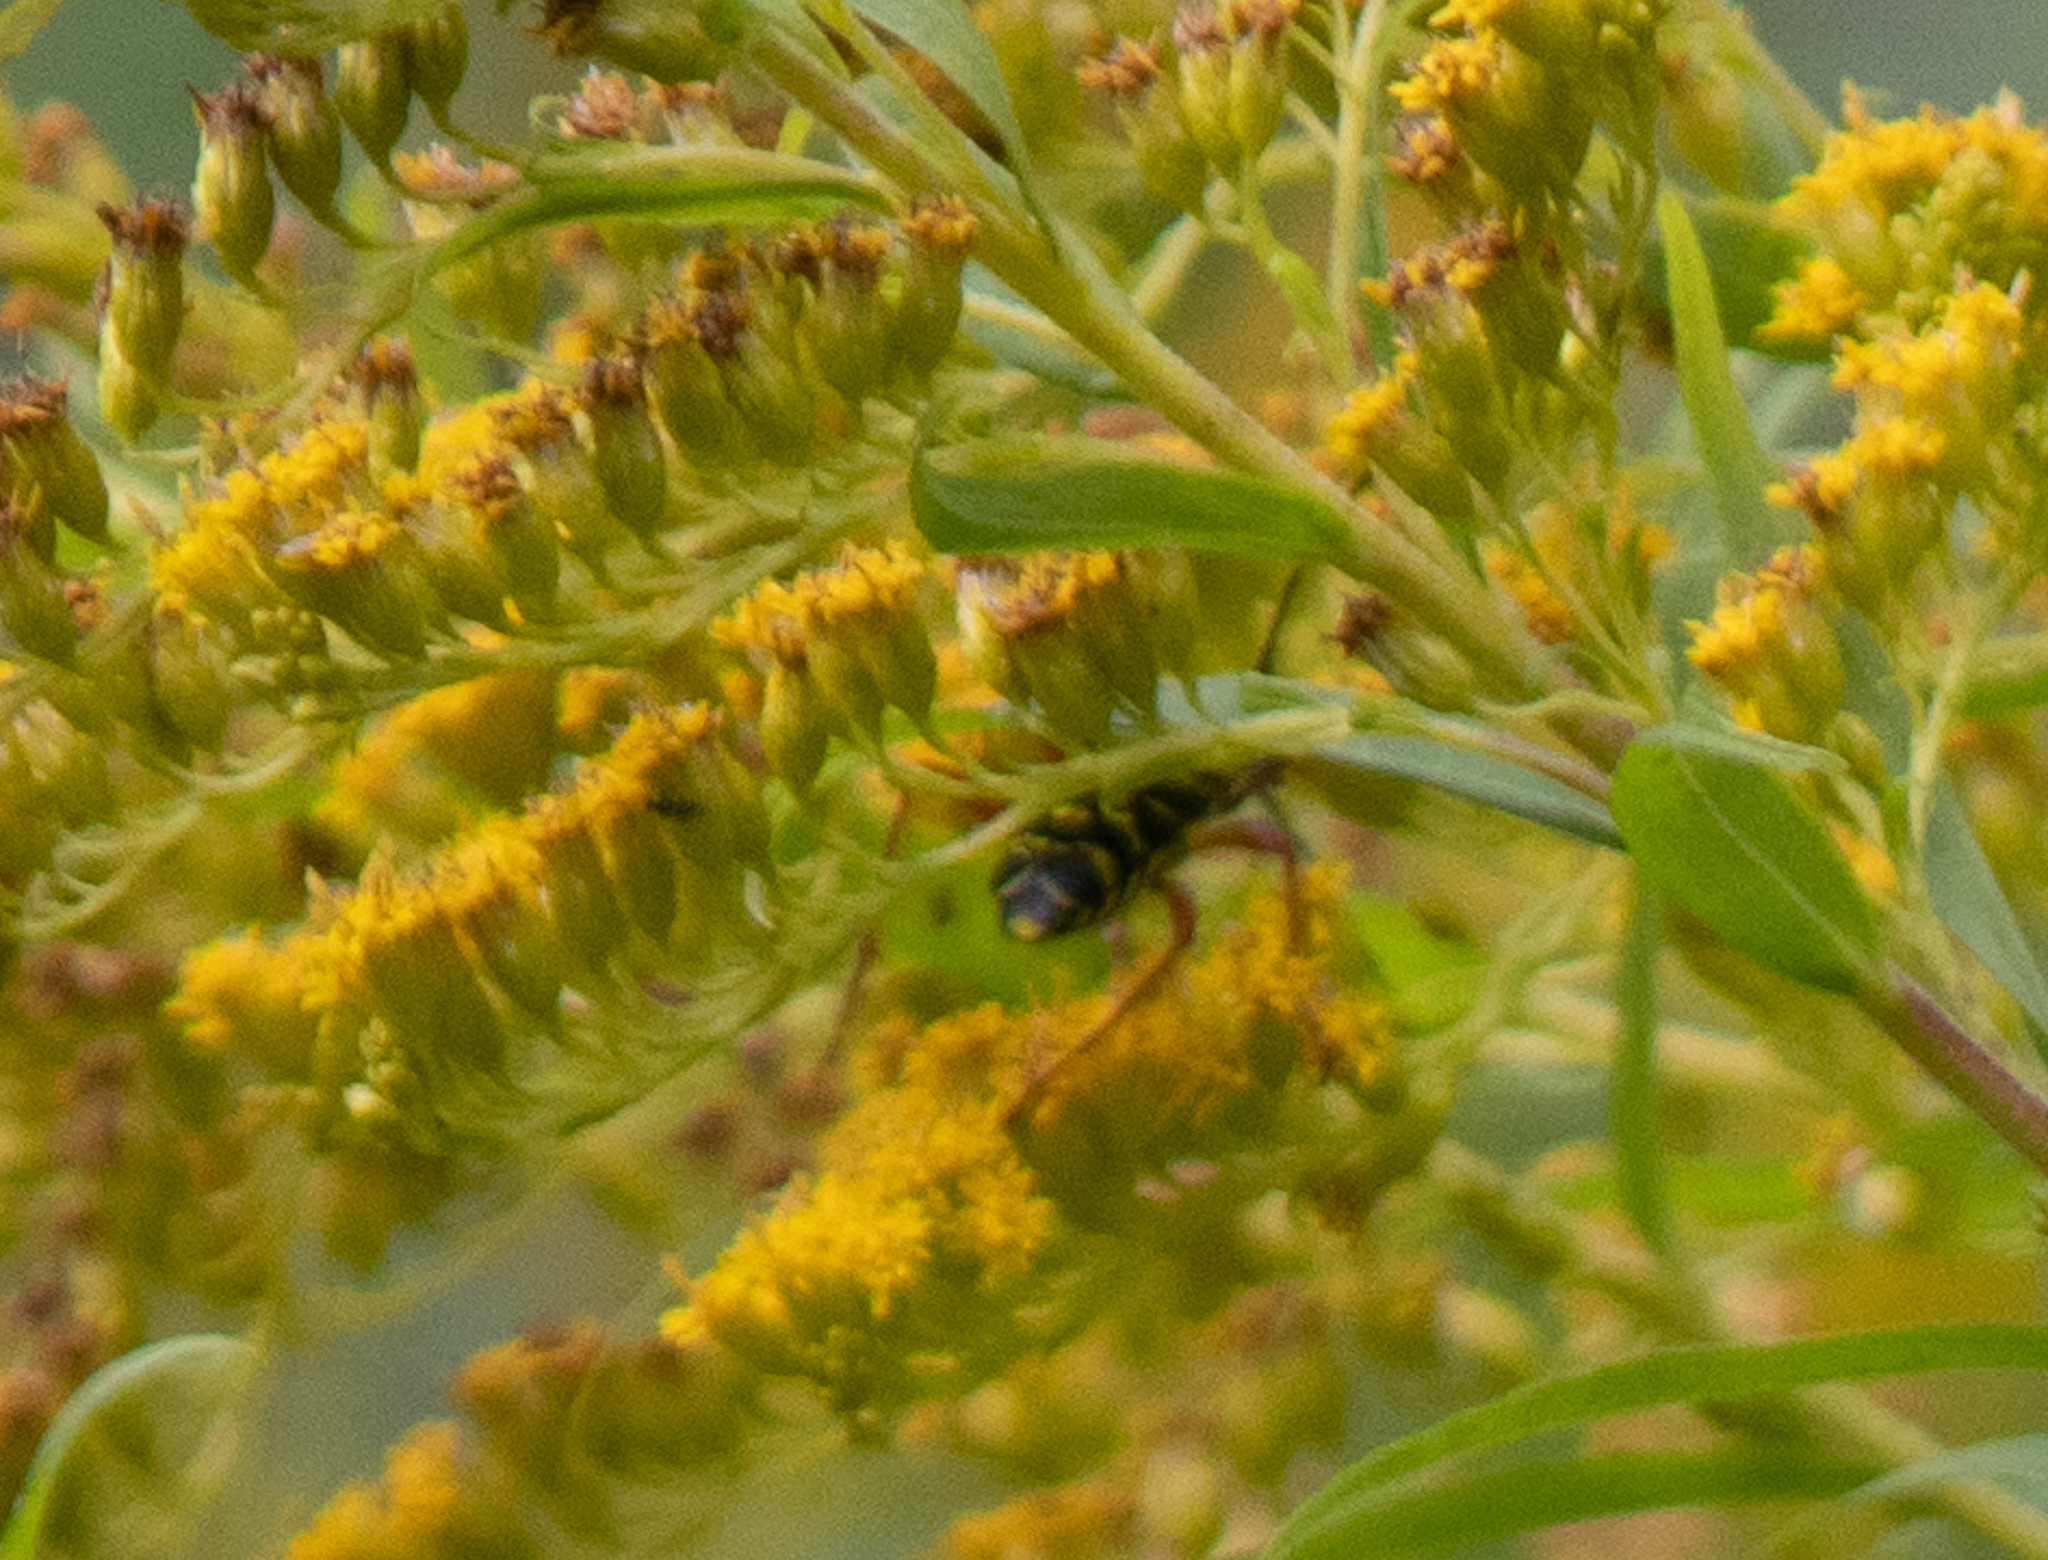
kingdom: Animalia
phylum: Arthropoda
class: Insecta
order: Coleoptera
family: Cerambycidae
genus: Megacyllene
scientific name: Megacyllene robiniae
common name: Locust borer
